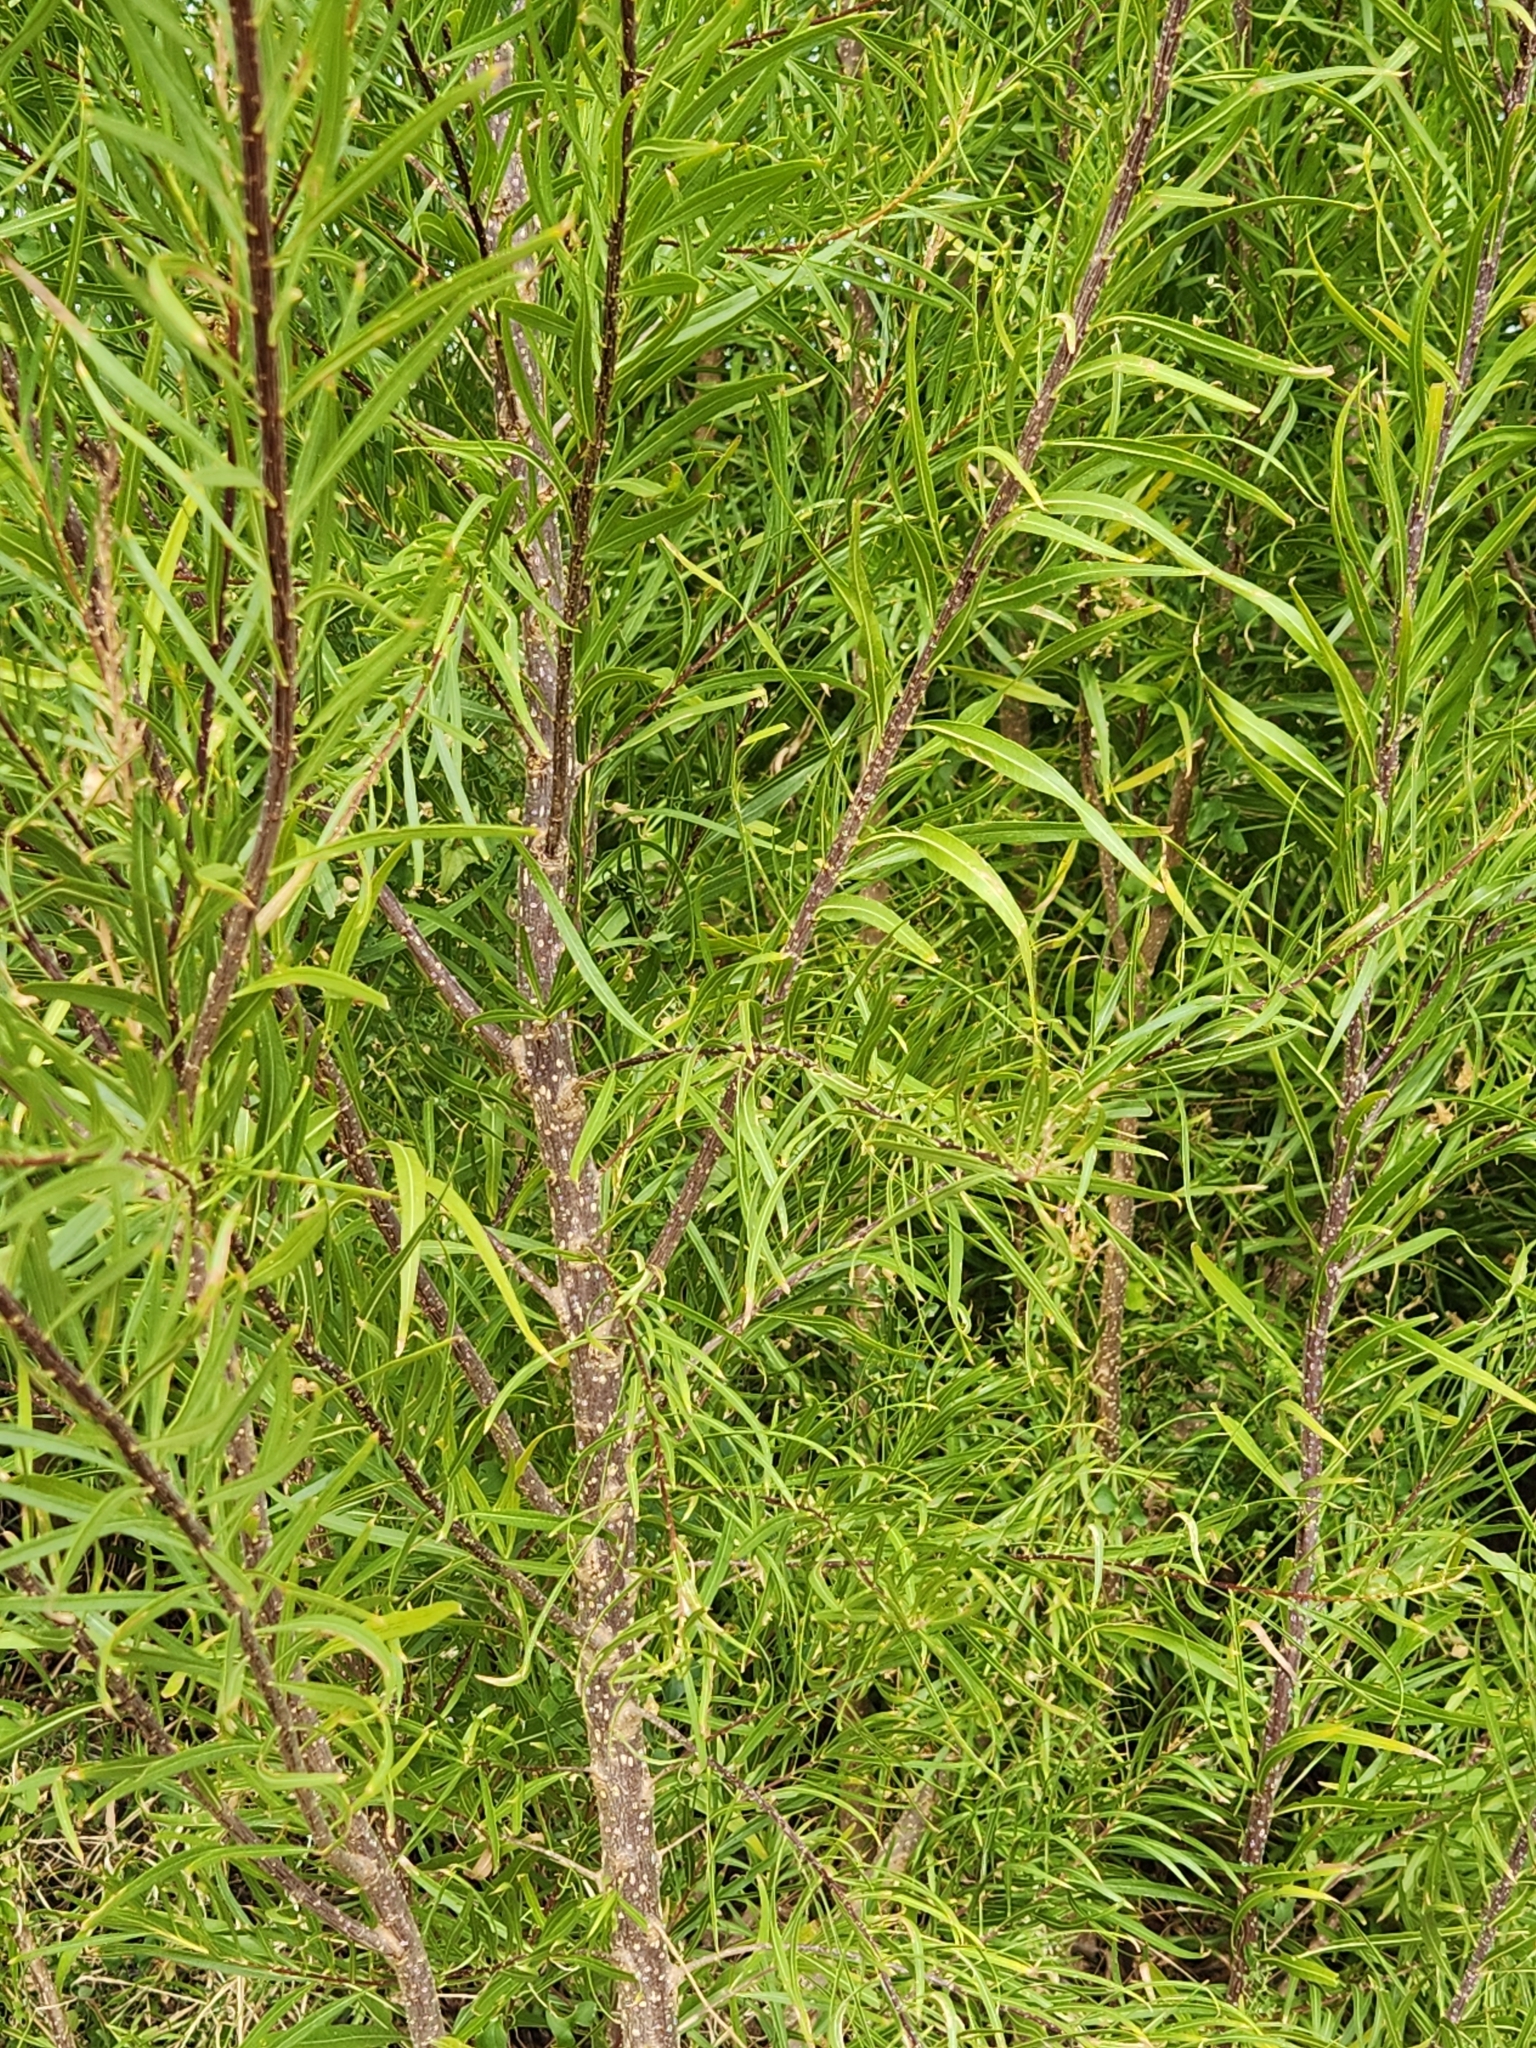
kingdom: Plantae
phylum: Tracheophyta
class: Magnoliopsida
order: Lamiales
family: Bignoniaceae
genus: Chilopsis
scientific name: Chilopsis linearis
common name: Desert-willow
